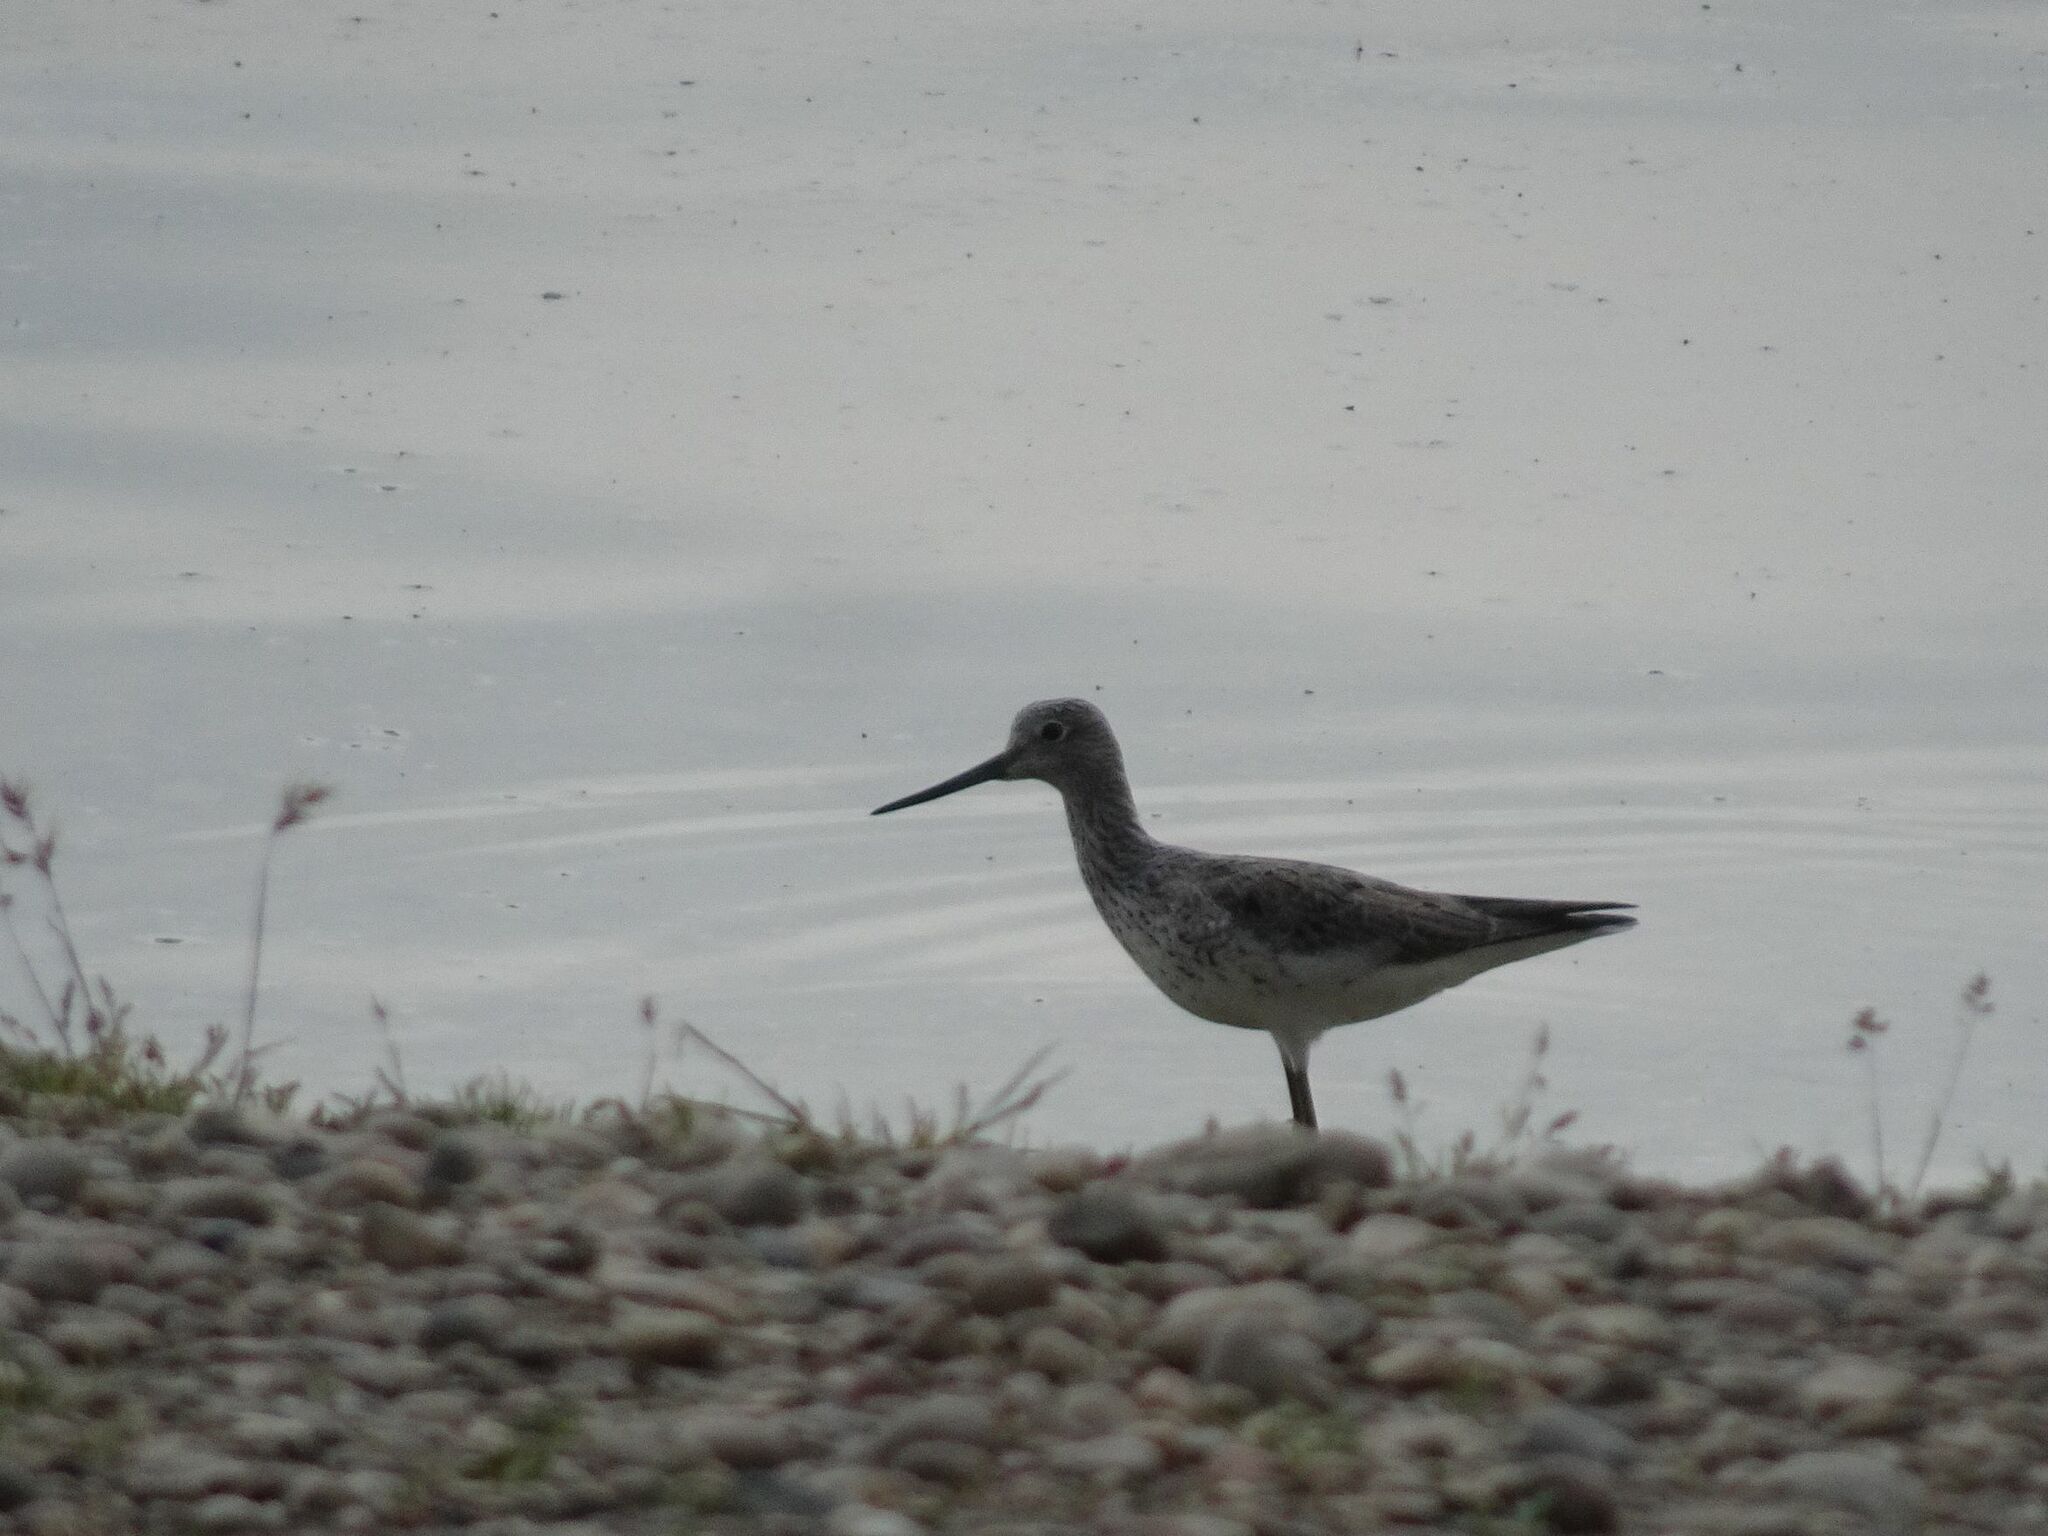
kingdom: Animalia
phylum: Chordata
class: Aves
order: Charadriiformes
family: Scolopacidae
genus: Tringa
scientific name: Tringa nebularia
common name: Common greenshank
